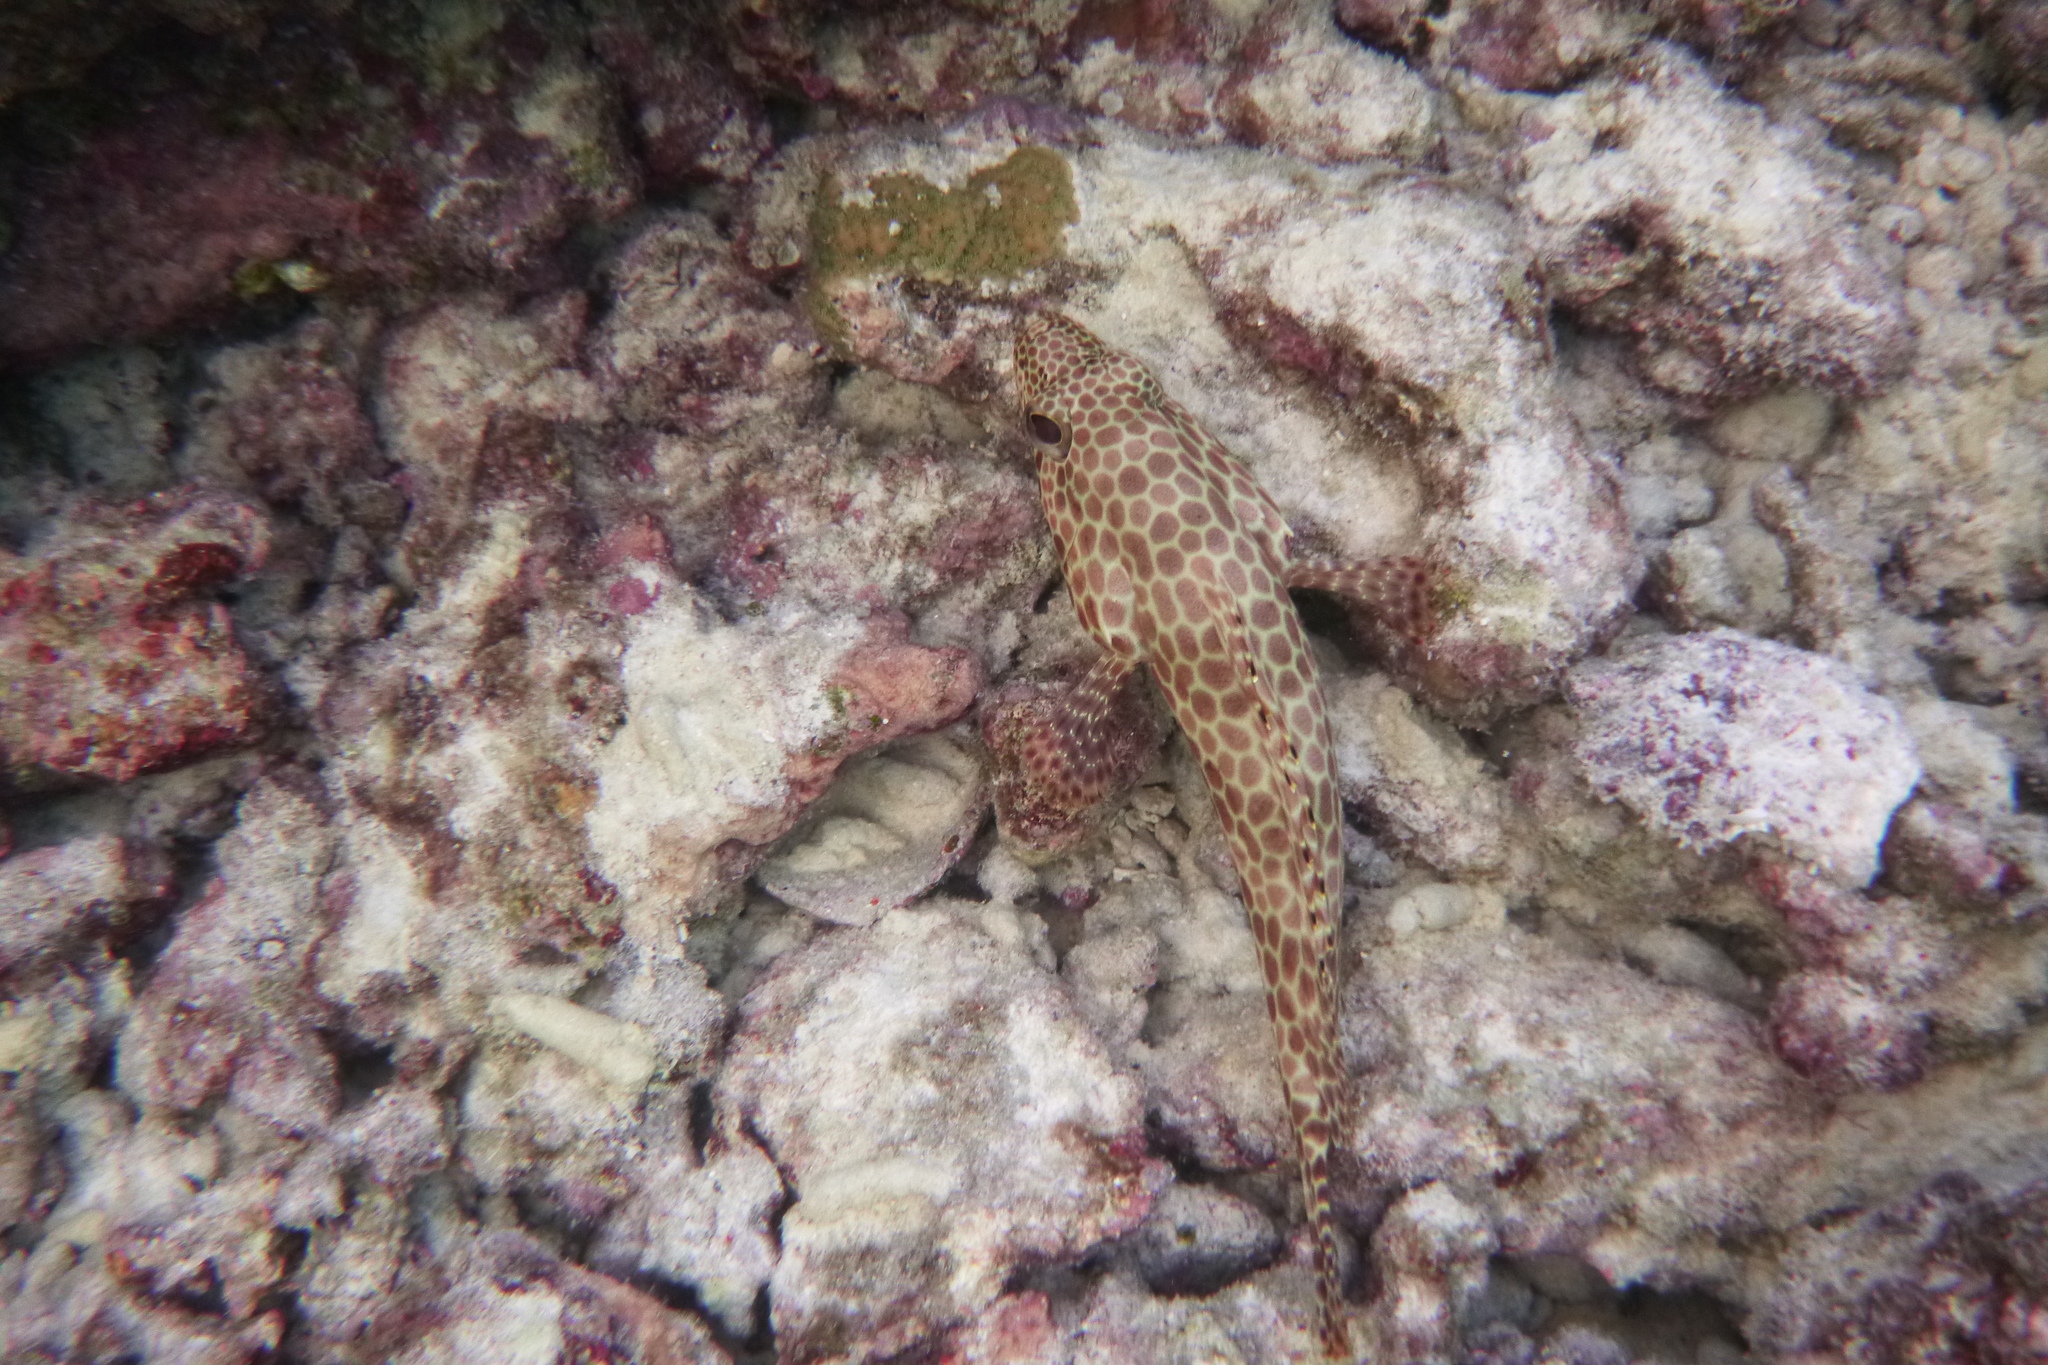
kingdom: Animalia
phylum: Chordata
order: Perciformes
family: Serranidae
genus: Epinephelus
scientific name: Epinephelus merra
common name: Honeycomb grouper
